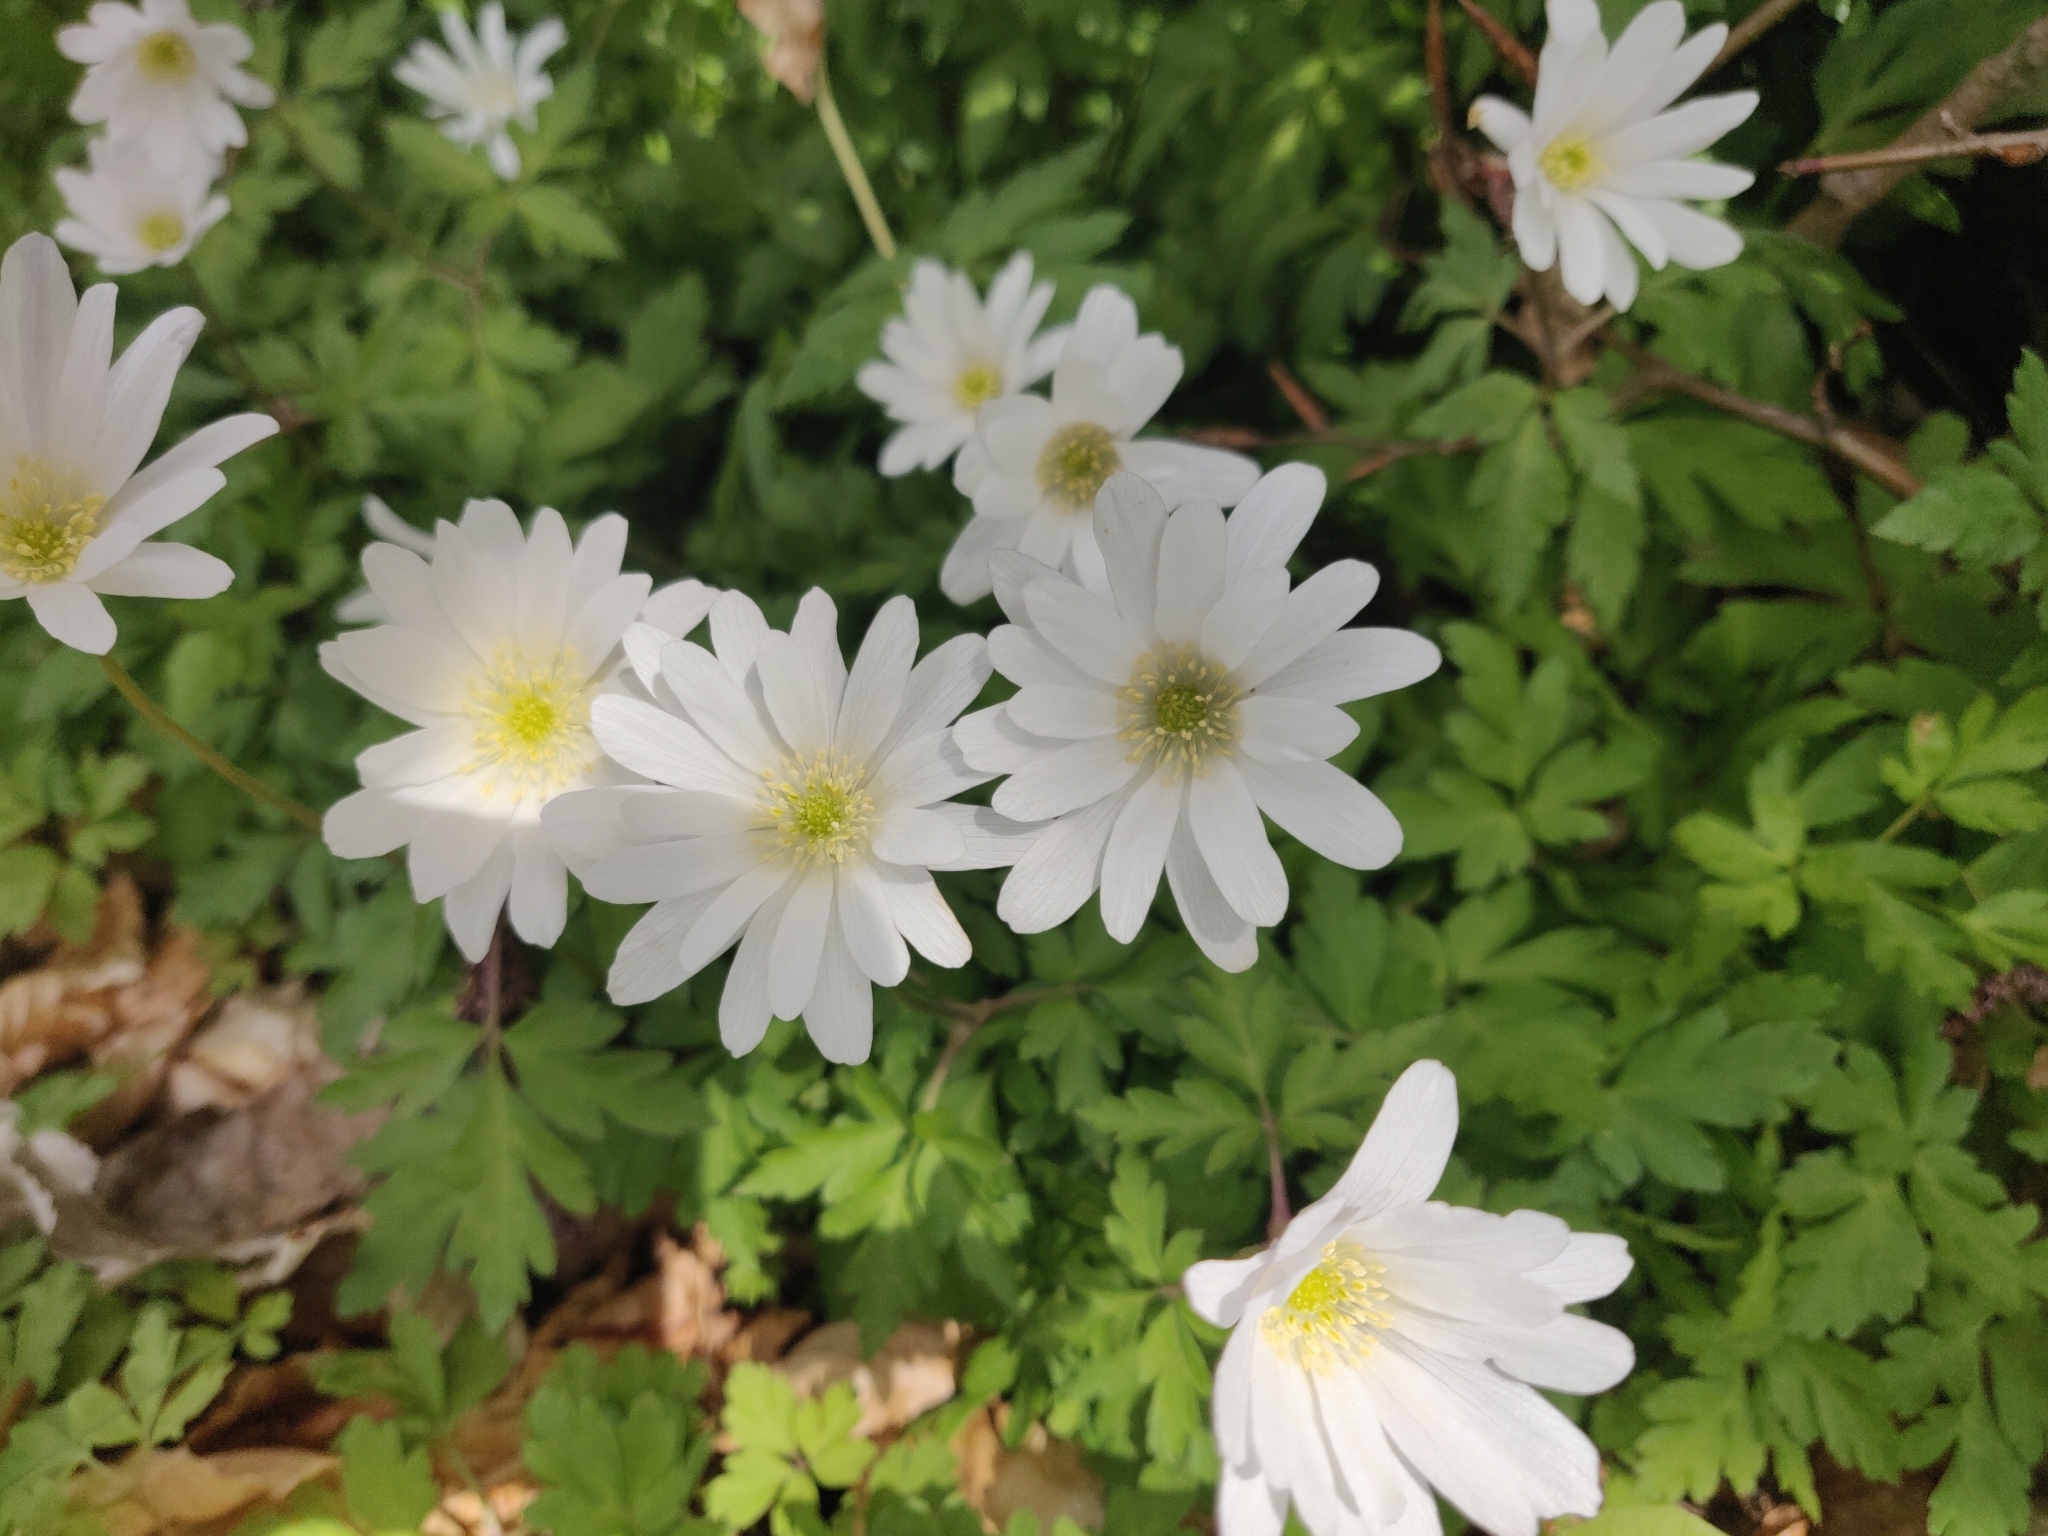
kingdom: Plantae
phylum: Tracheophyta
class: Magnoliopsida
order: Ranunculales
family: Ranunculaceae
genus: Anemone
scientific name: Anemone apennina
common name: Blue anemone
